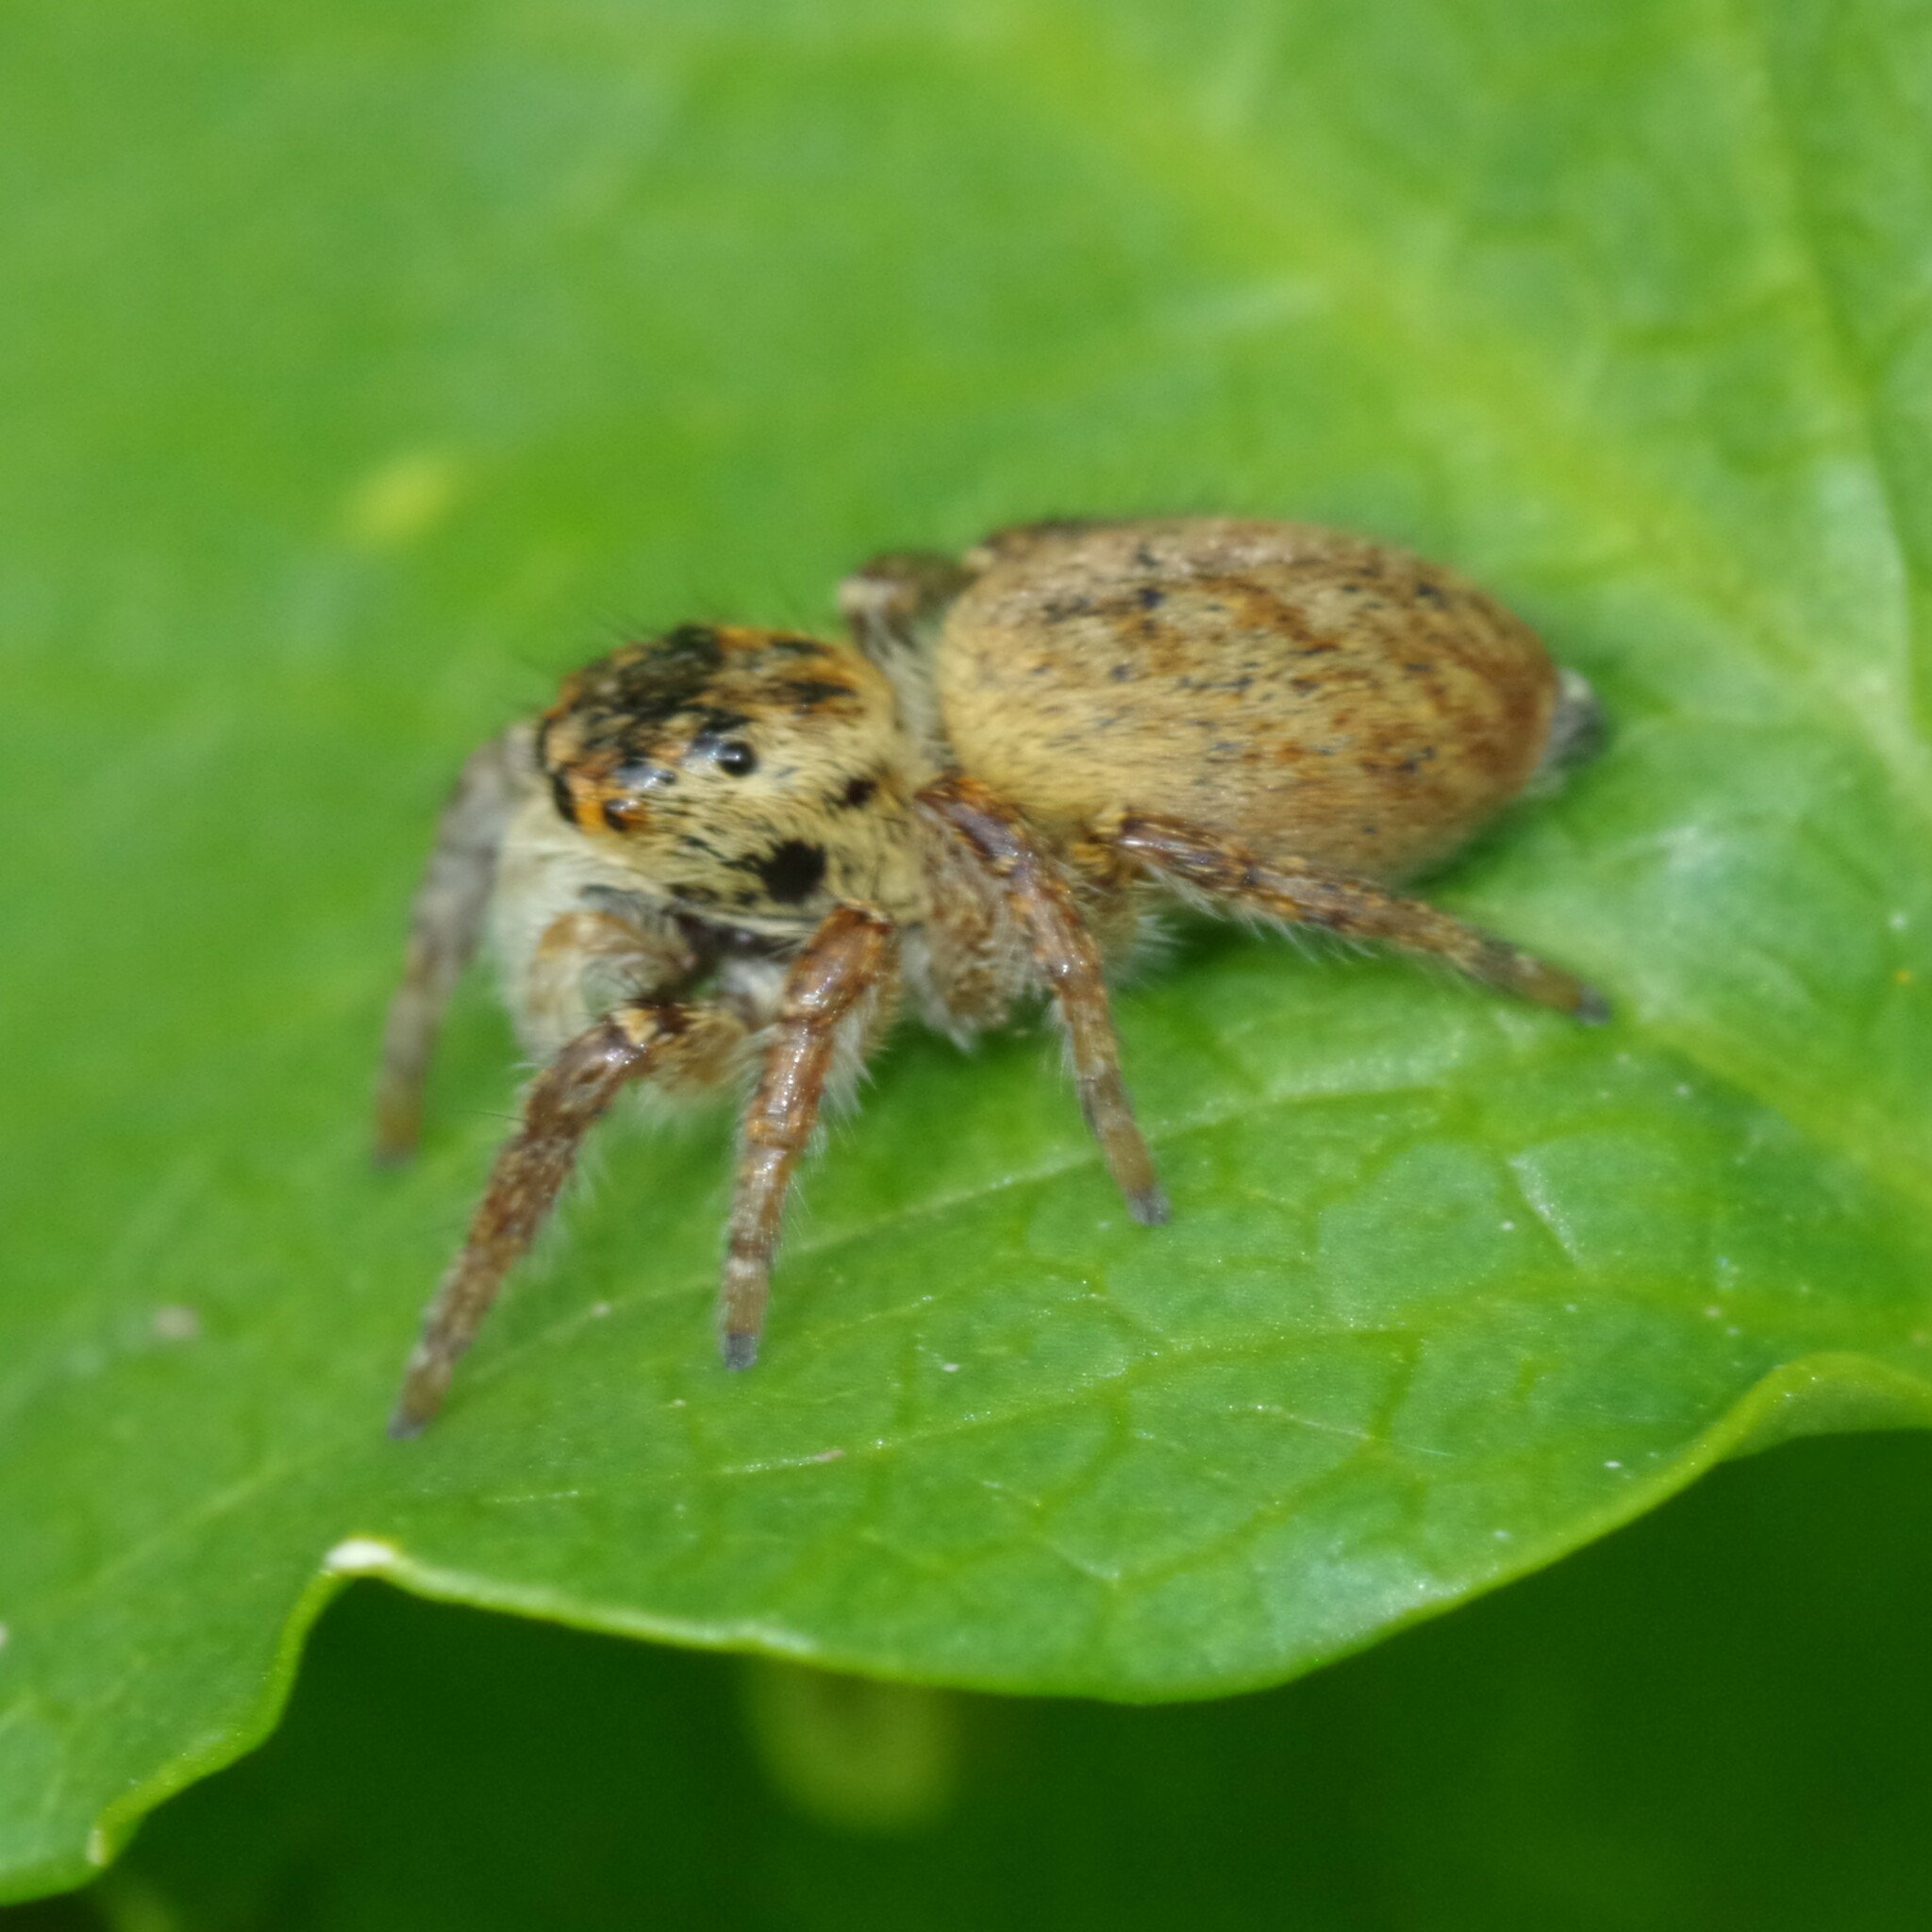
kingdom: Animalia
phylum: Arthropoda
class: Arachnida
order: Araneae
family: Salticidae
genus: Carrhotus
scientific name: Carrhotus xanthogramma
